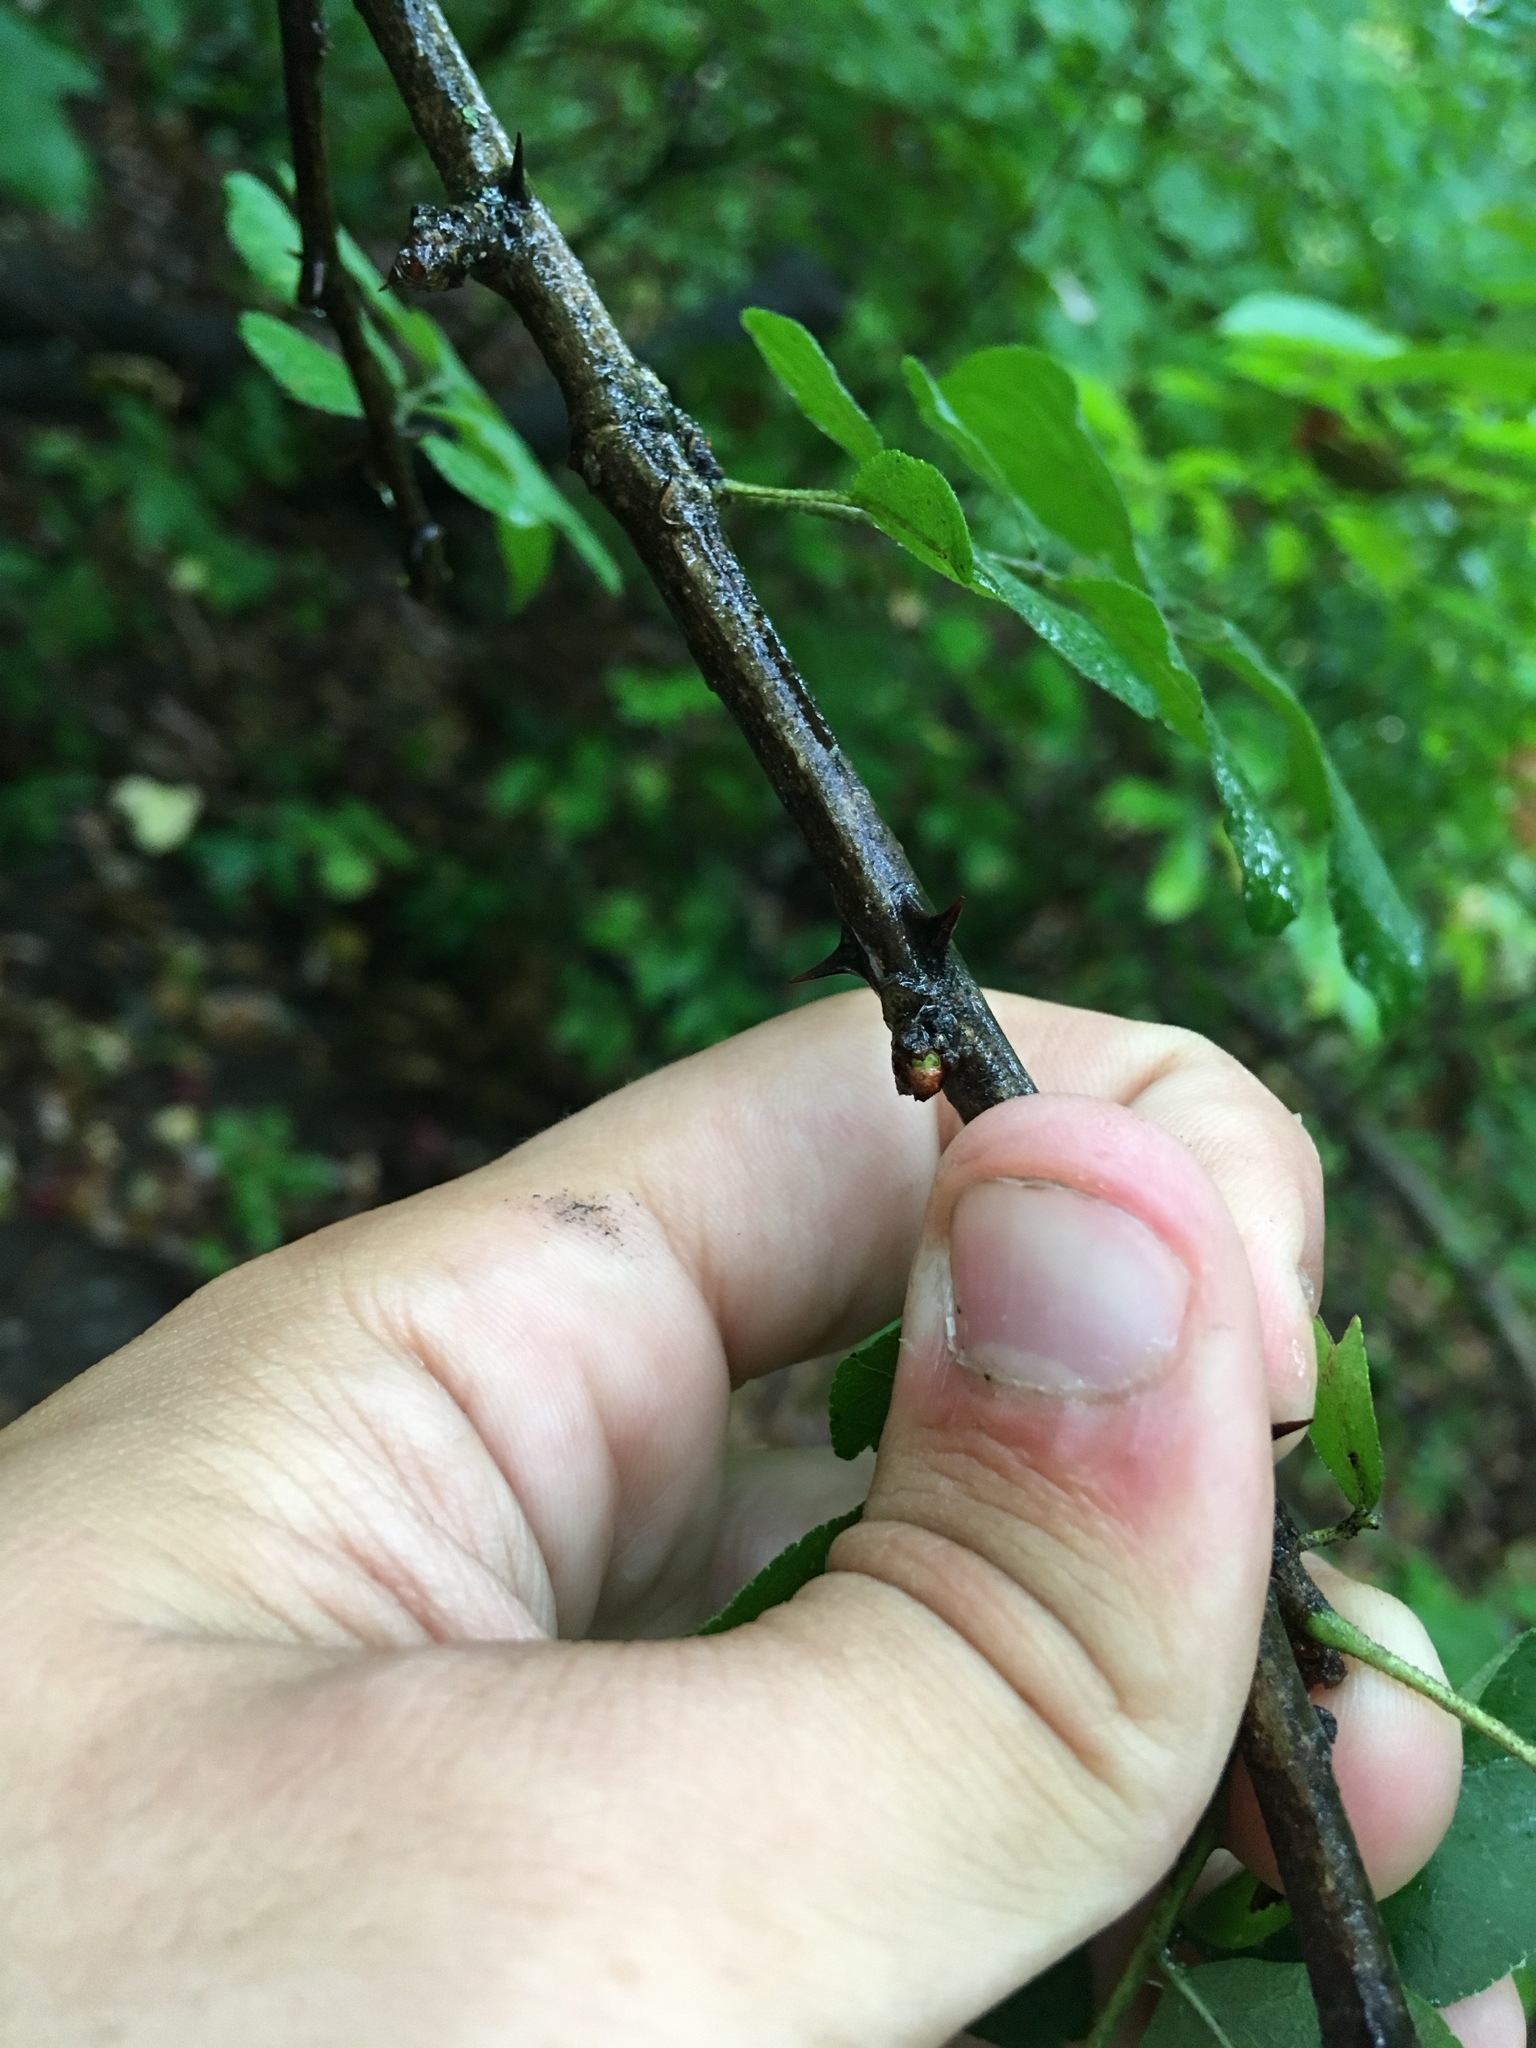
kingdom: Plantae
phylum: Tracheophyta
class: Magnoliopsida
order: Sapindales
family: Rutaceae
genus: Zanthoxylum
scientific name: Zanthoxylum americanum
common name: Northern prickly-ash
